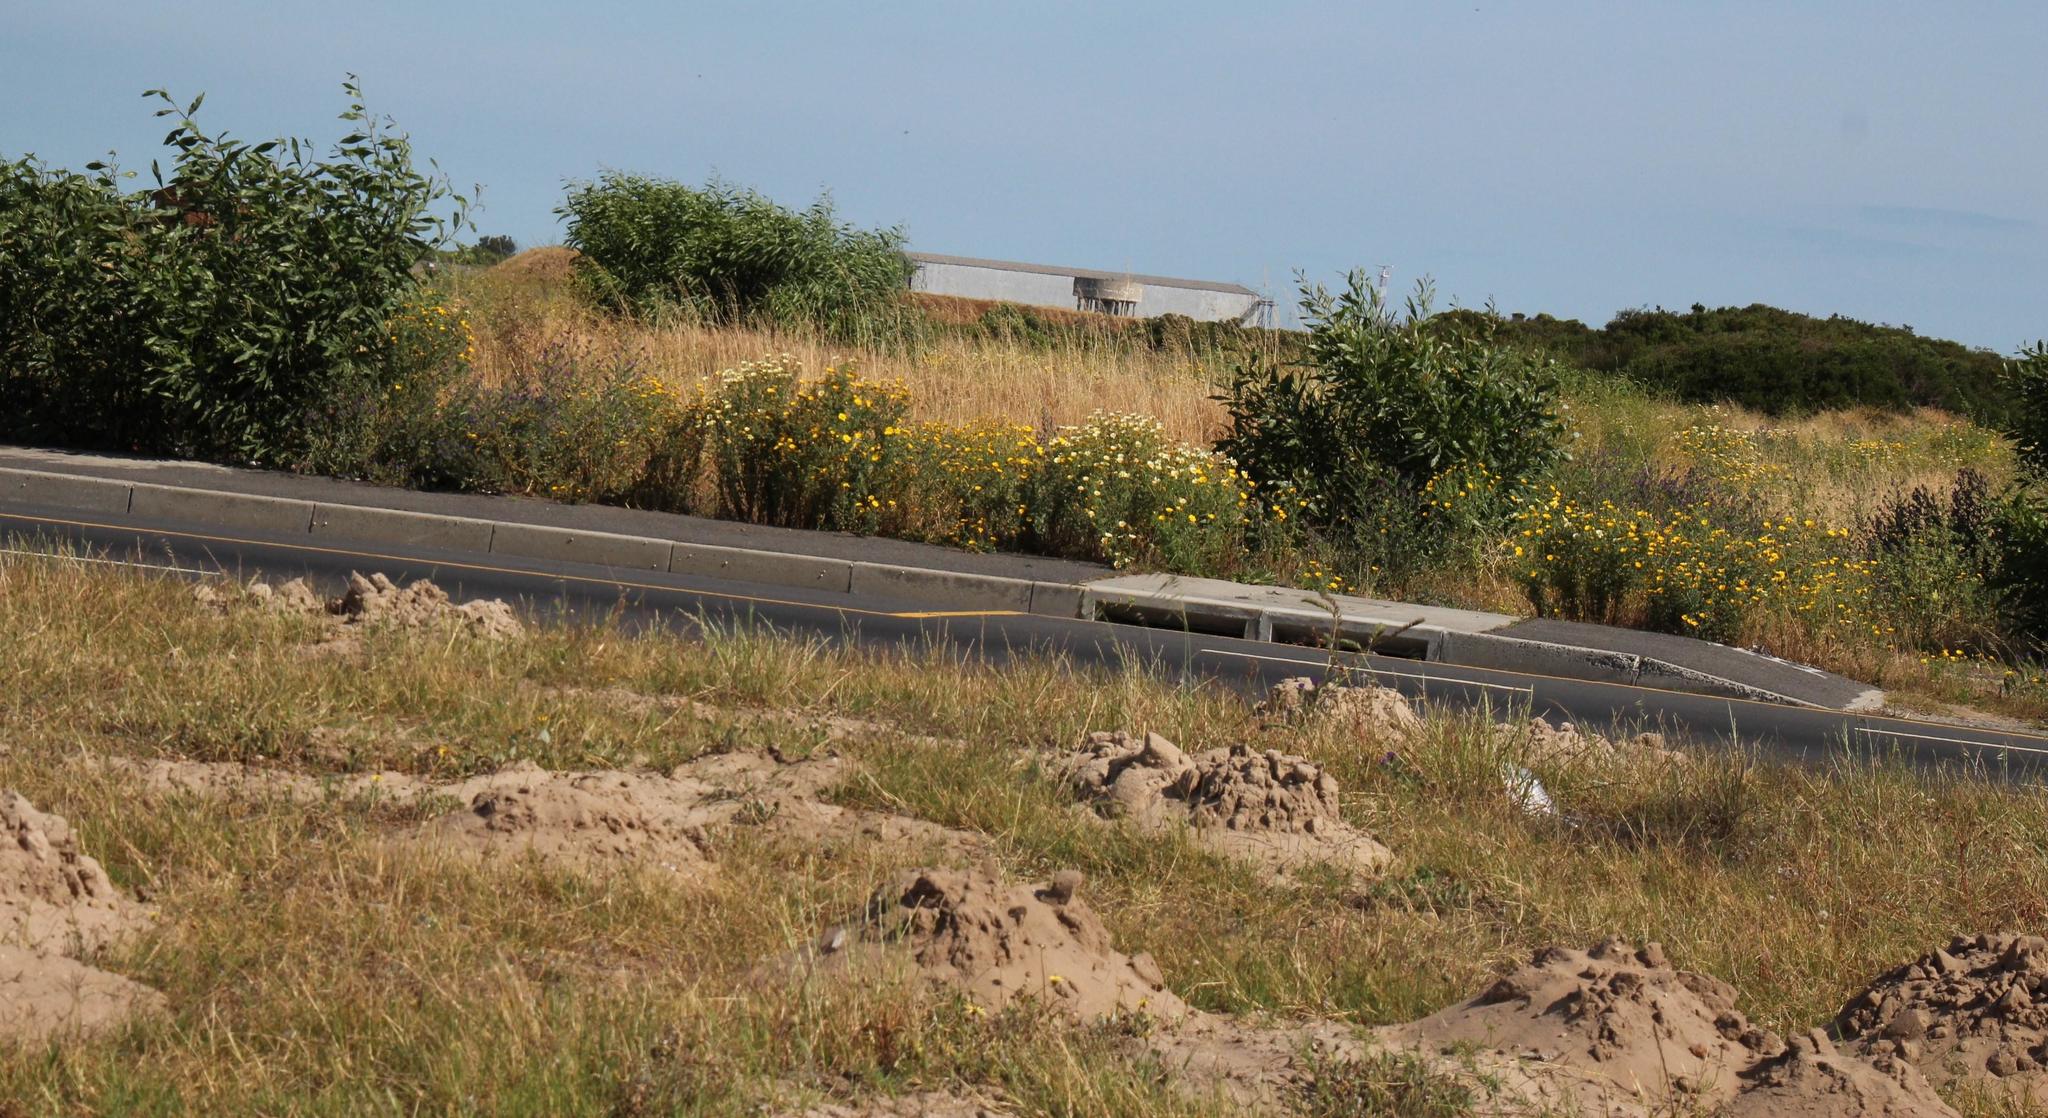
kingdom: Plantae
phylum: Tracheophyta
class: Magnoliopsida
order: Asterales
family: Asteraceae
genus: Glebionis
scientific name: Glebionis coronaria
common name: Crowndaisy
